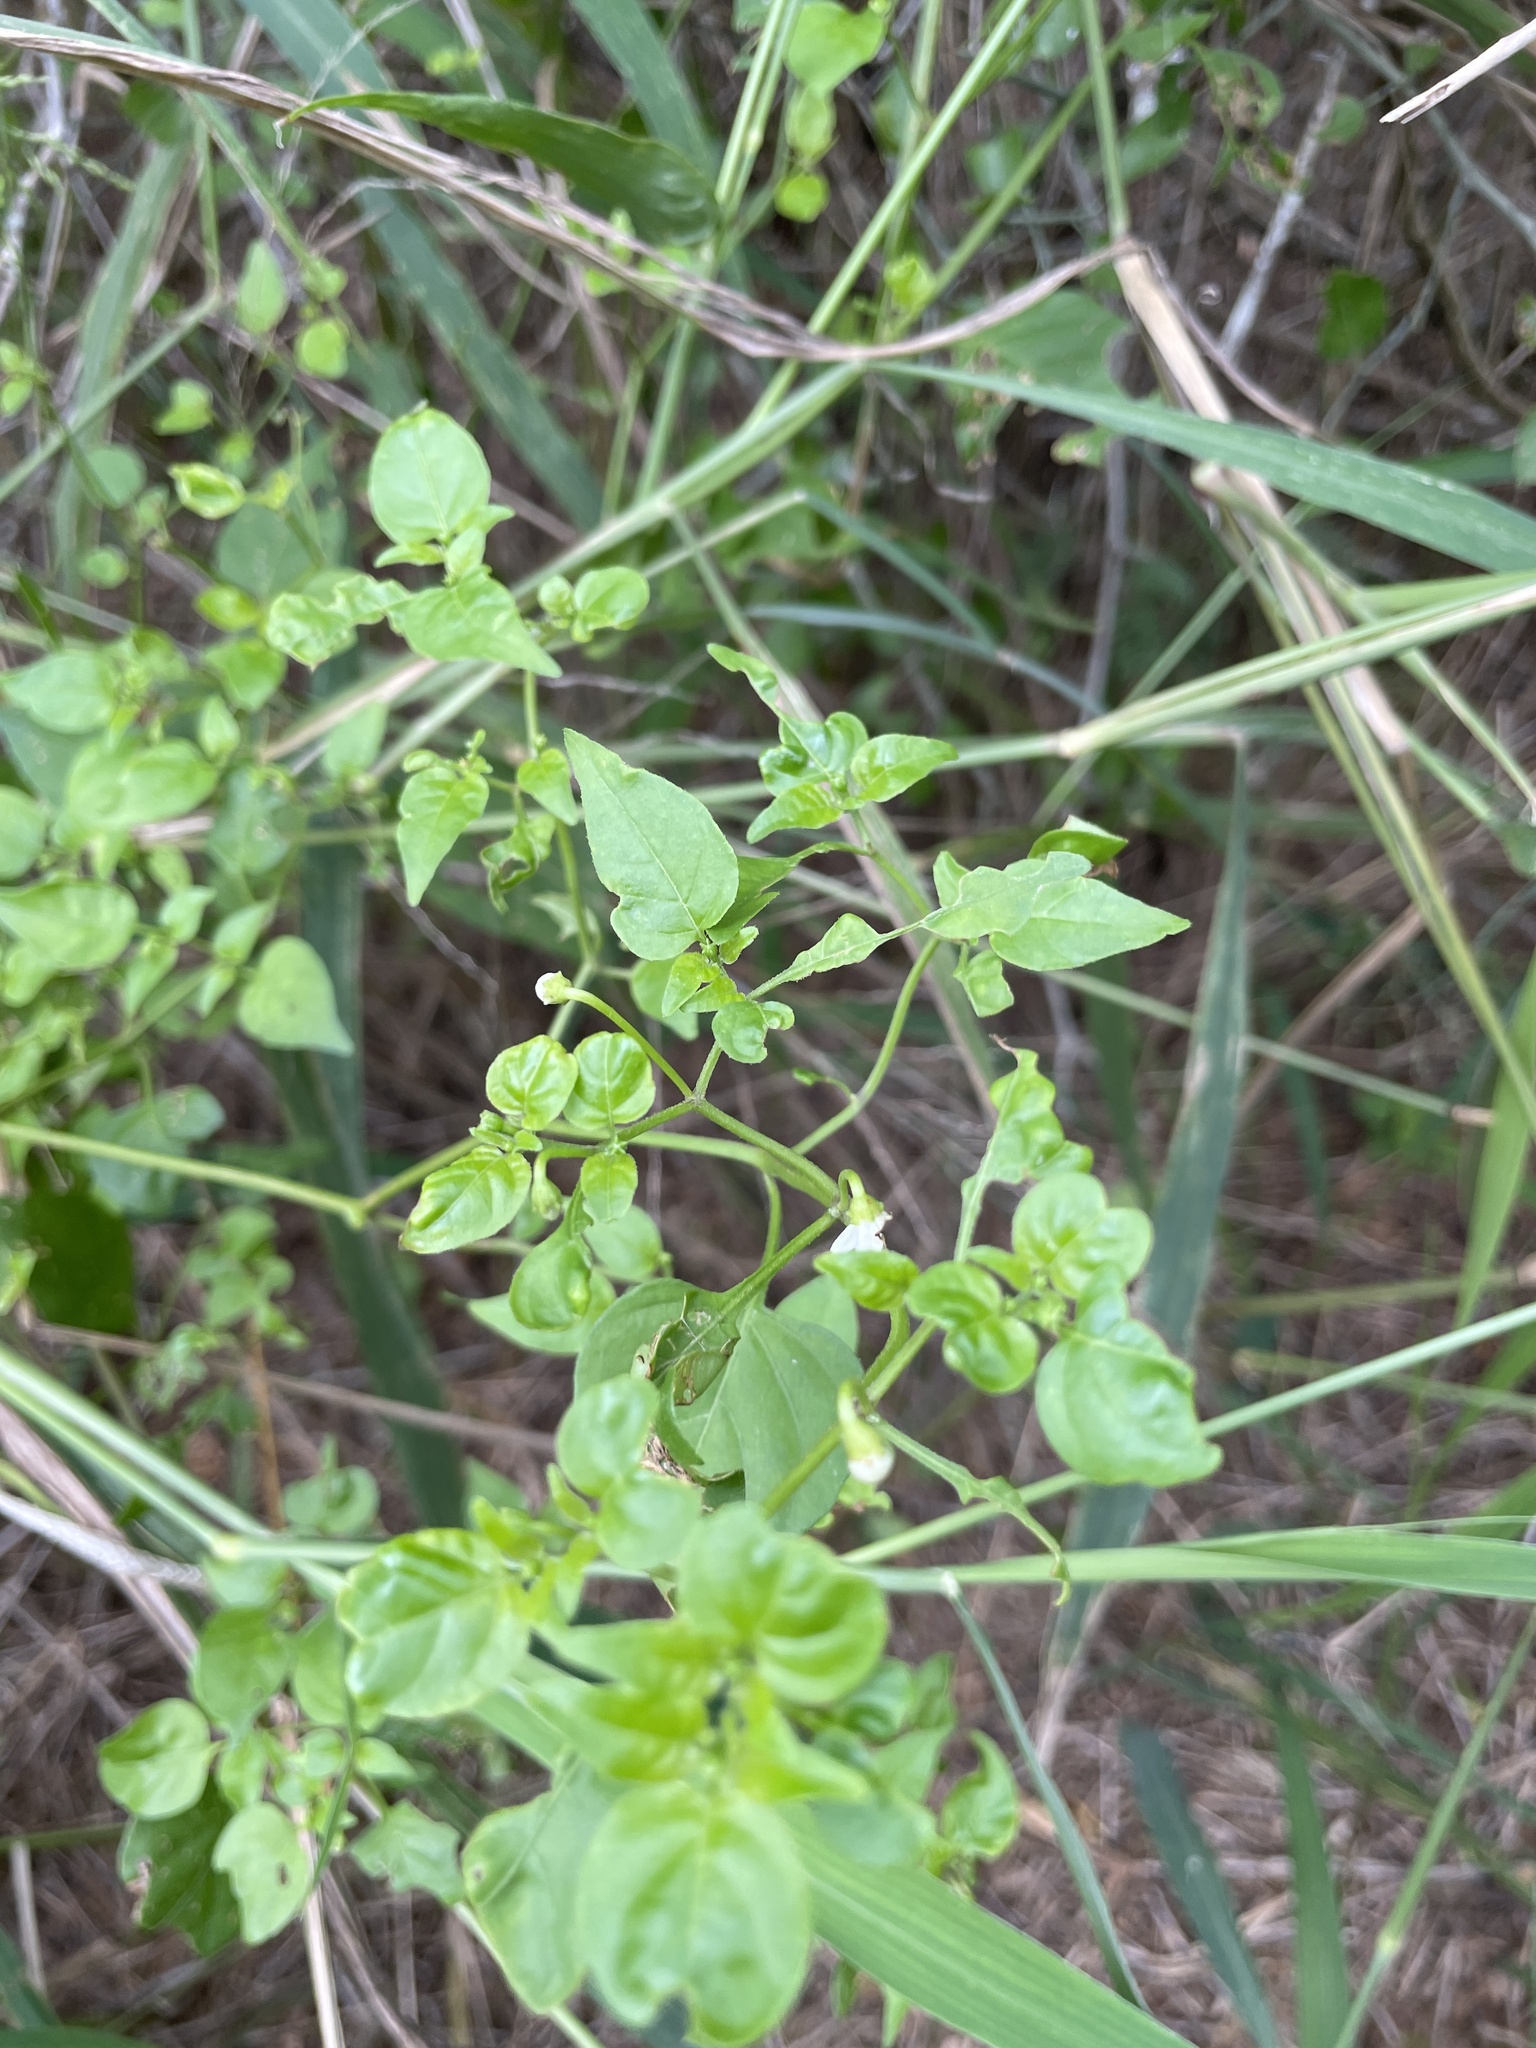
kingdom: Plantae
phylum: Tracheophyta
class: Magnoliopsida
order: Solanales
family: Solanaceae
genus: Capsicum
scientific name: Capsicum annuum
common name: Sweet pepper
